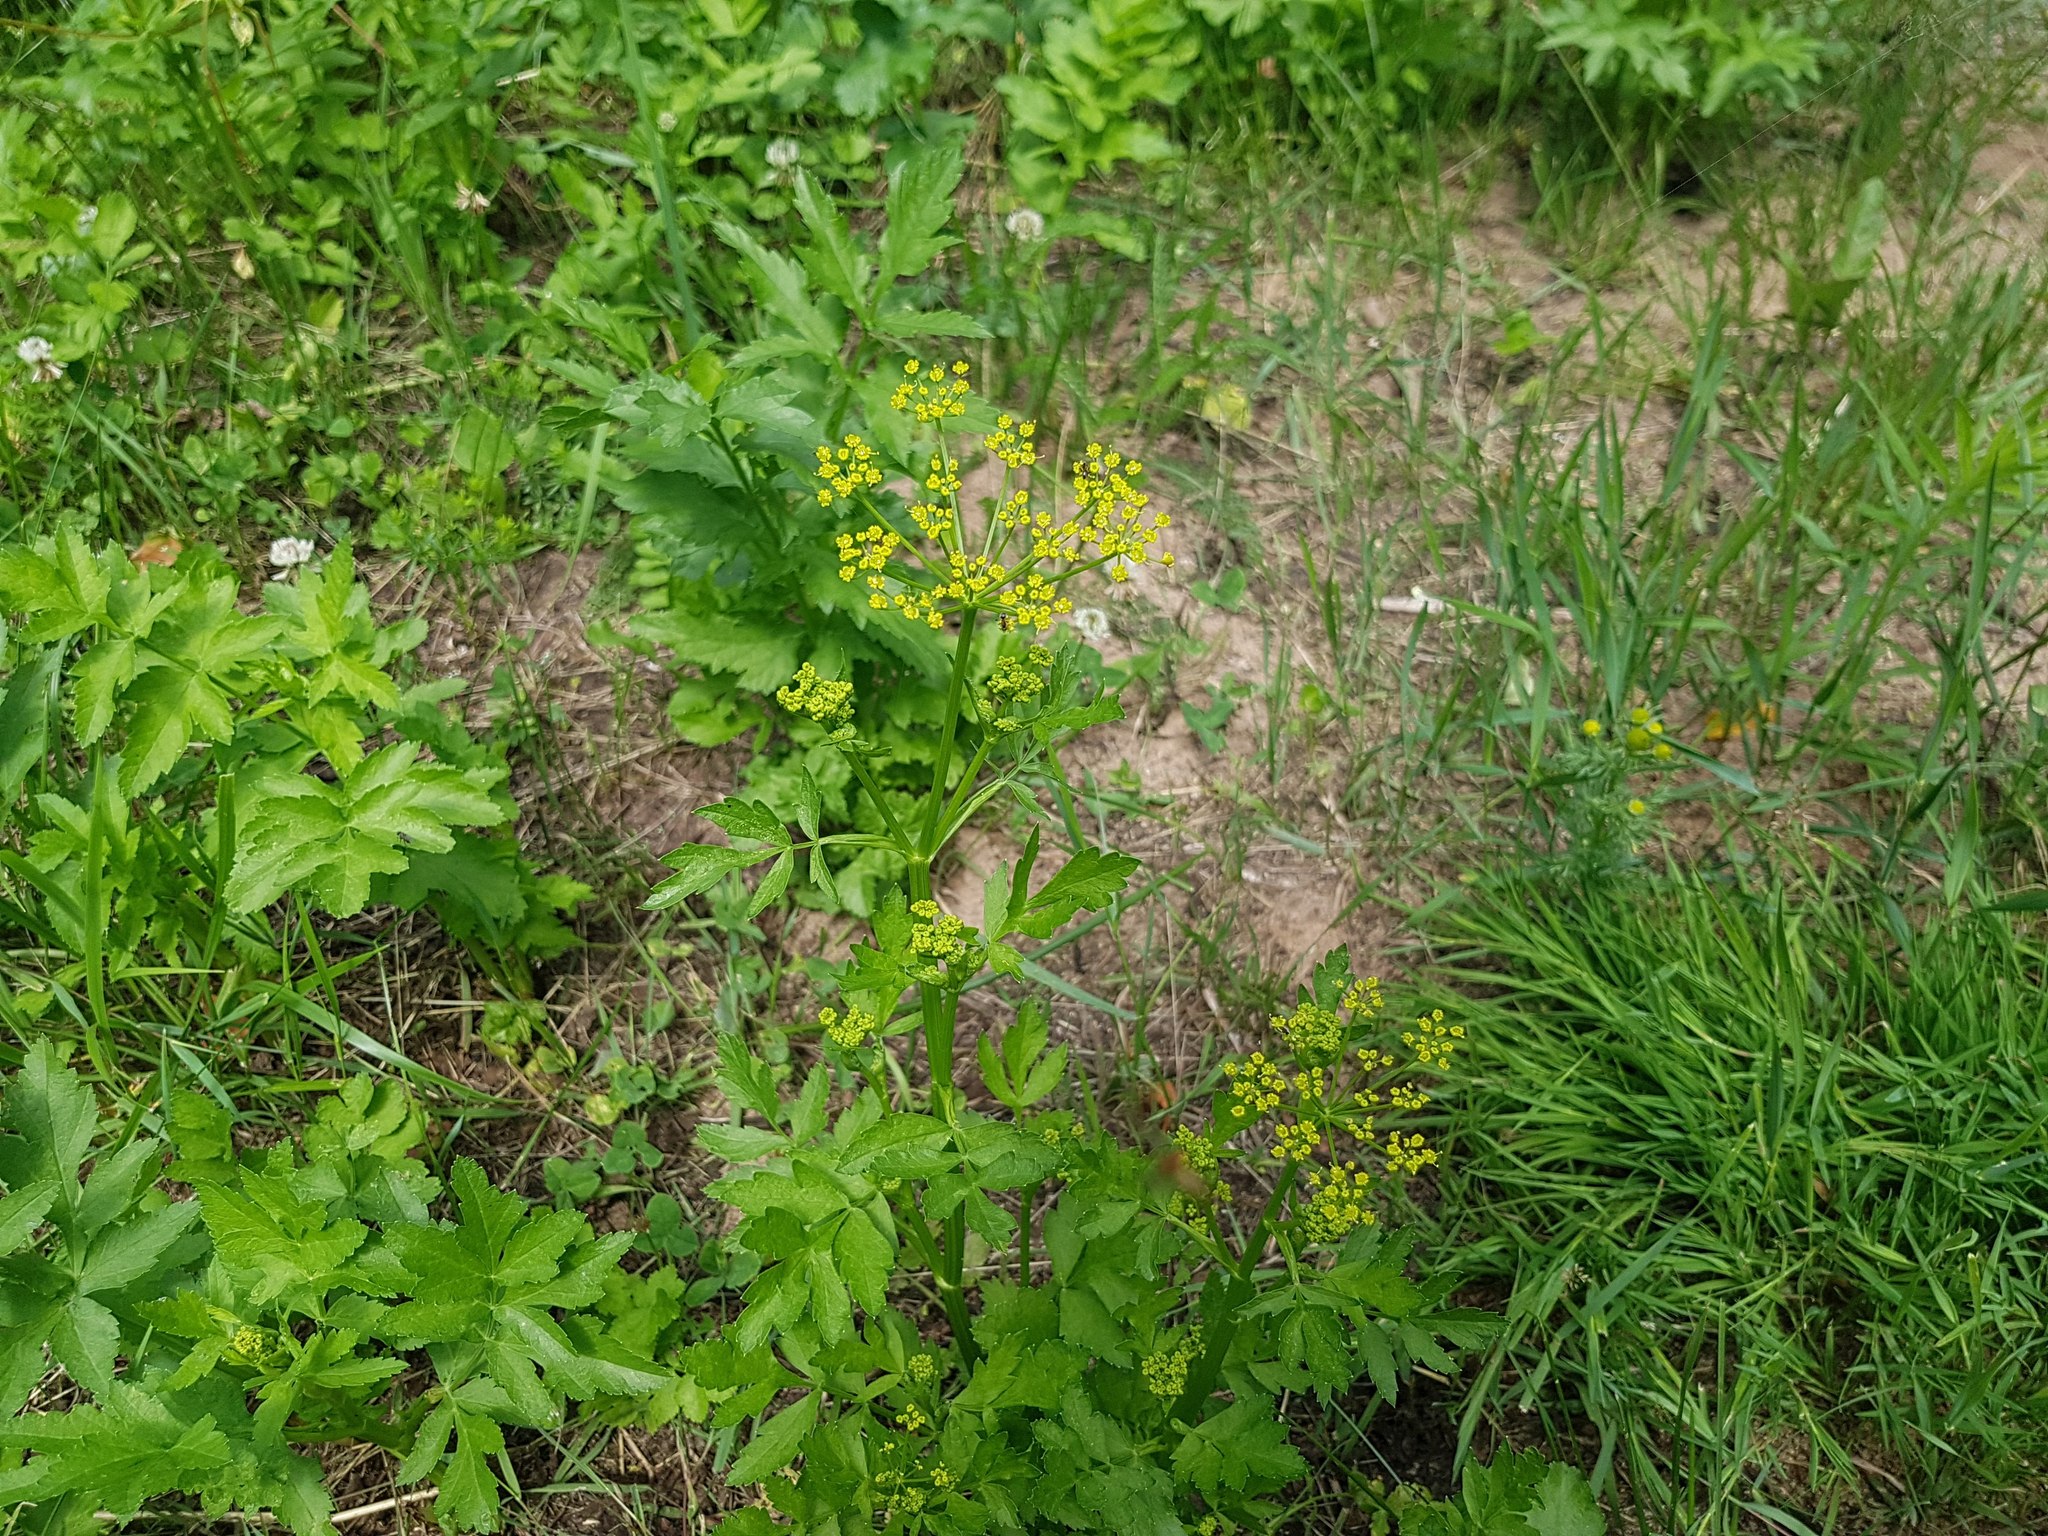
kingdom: Plantae
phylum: Tracheophyta
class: Magnoliopsida
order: Apiales
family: Apiaceae
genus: Pastinaca
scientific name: Pastinaca sativa
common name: Wild parsnip
